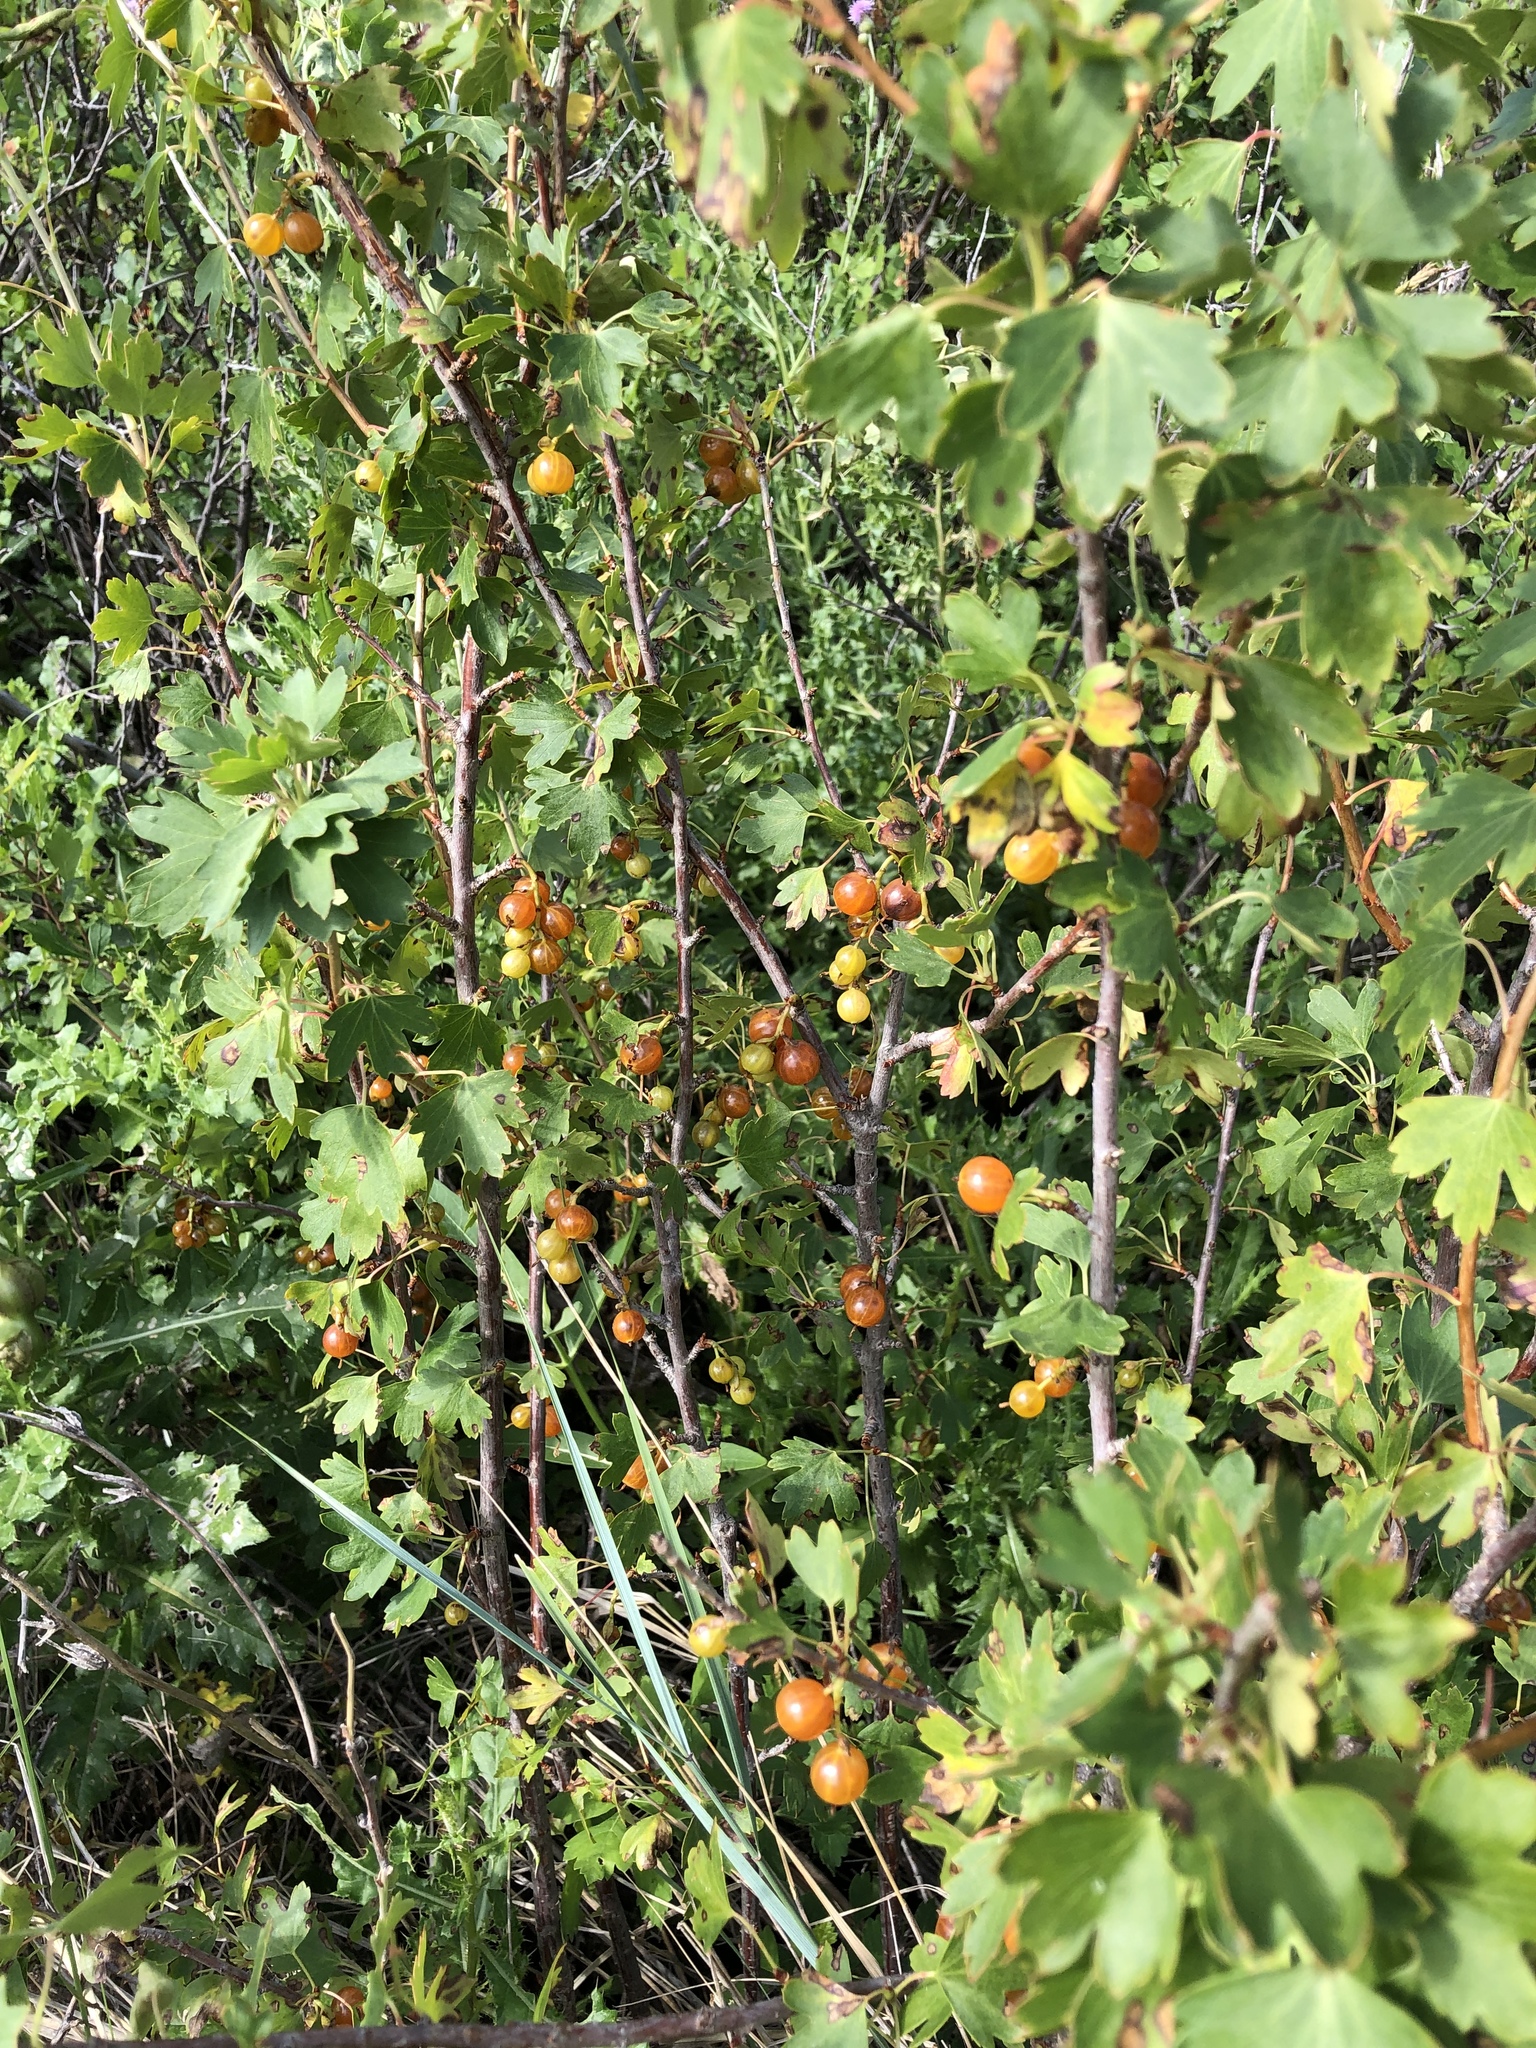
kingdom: Plantae
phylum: Tracheophyta
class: Magnoliopsida
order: Saxifragales
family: Grossulariaceae
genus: Ribes
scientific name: Ribes aureum
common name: Golden currant
